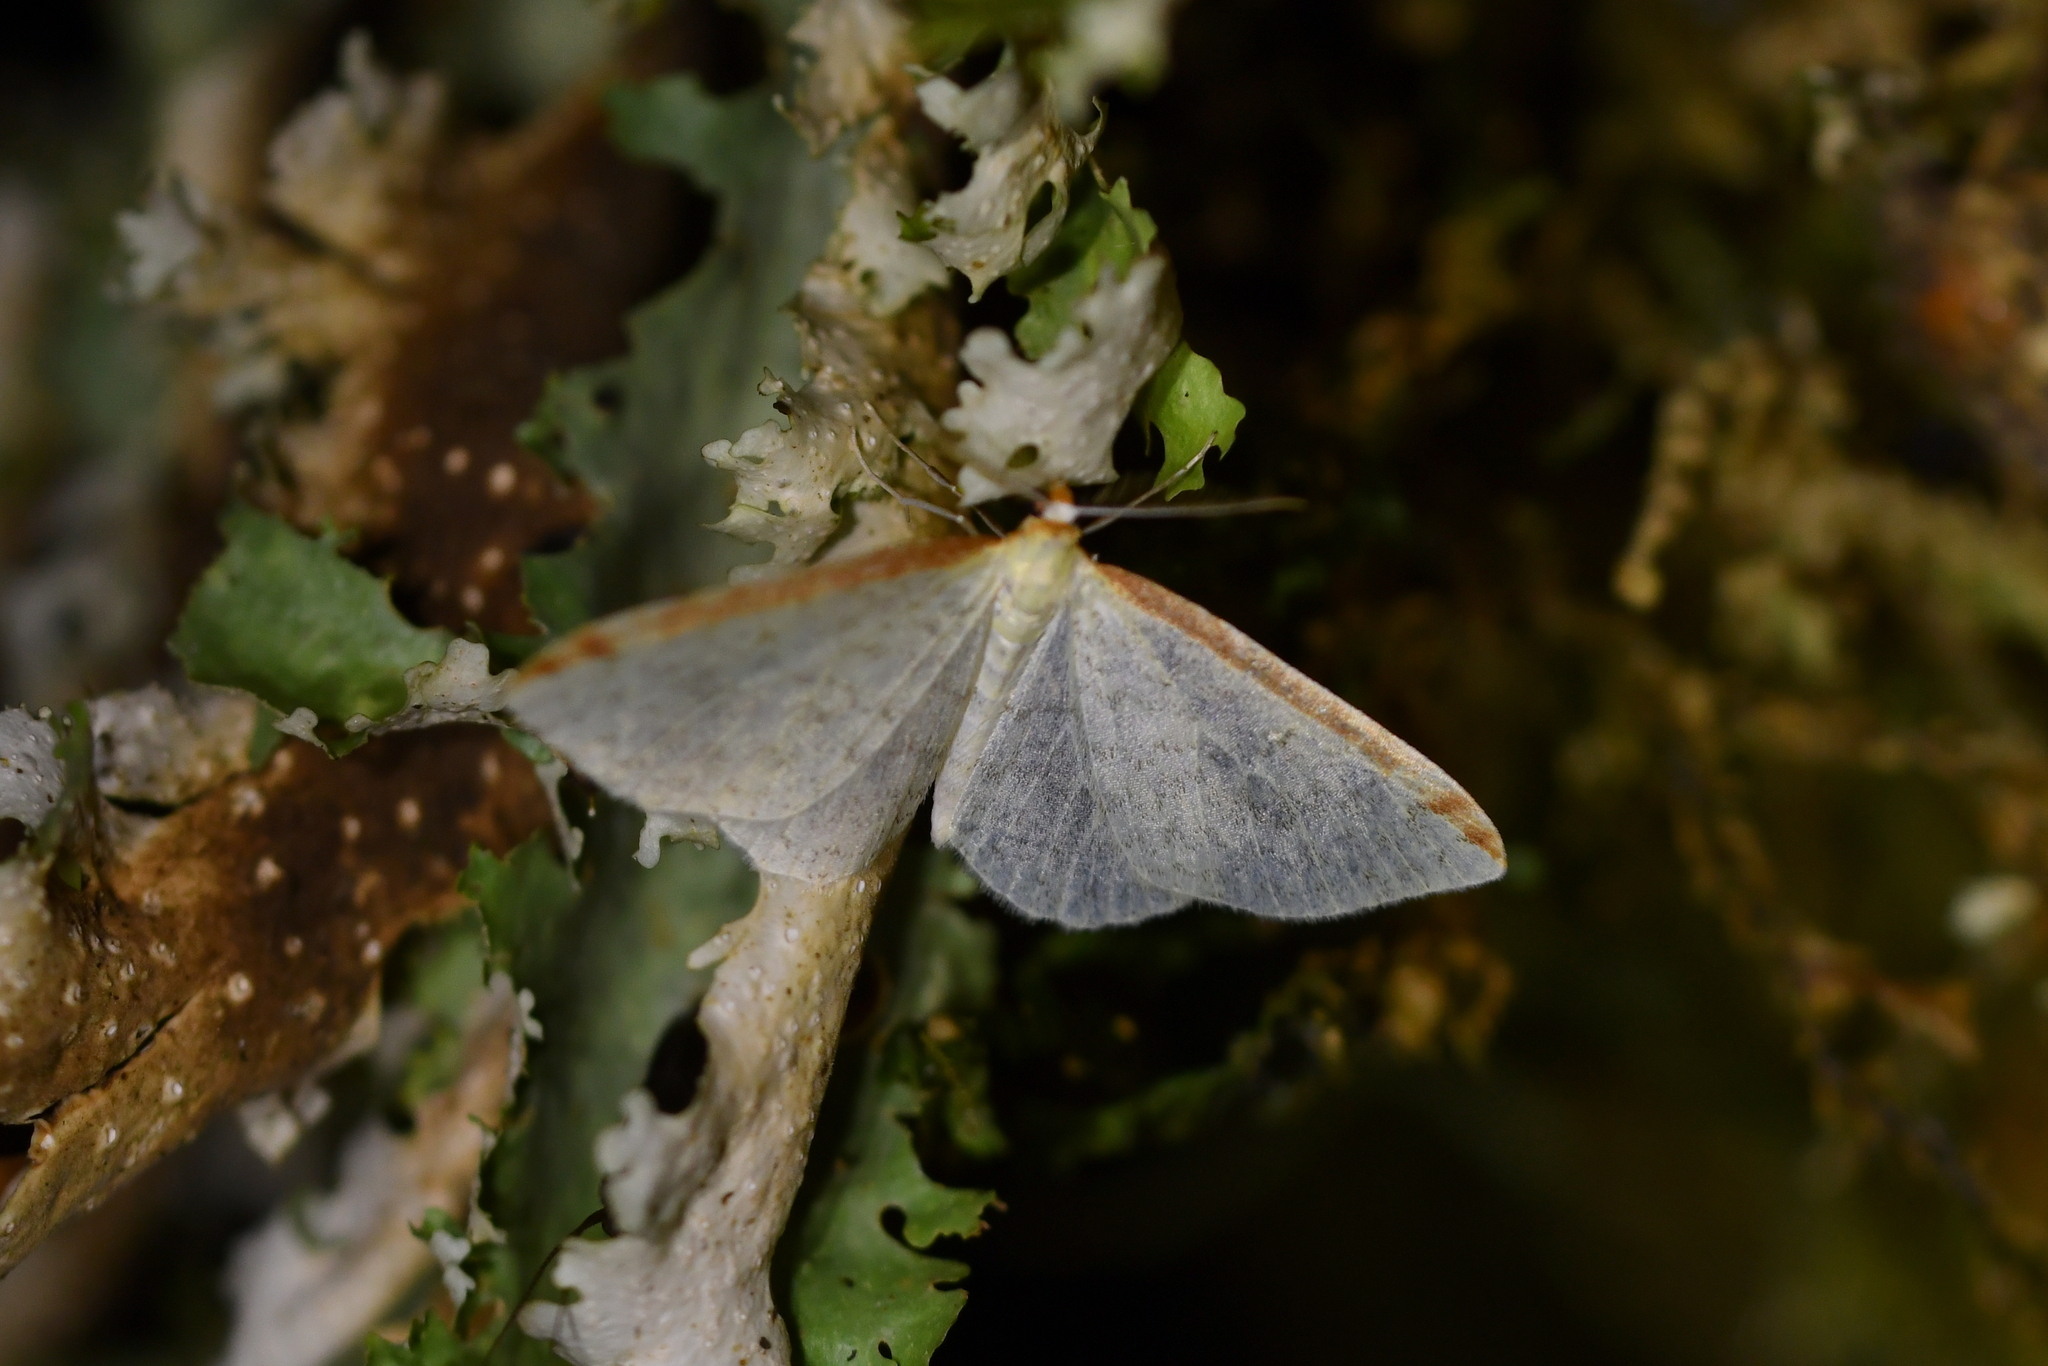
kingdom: Animalia
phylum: Arthropoda
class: Insecta
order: Lepidoptera
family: Geometridae
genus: Epiphryne
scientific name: Epiphryne undosata
